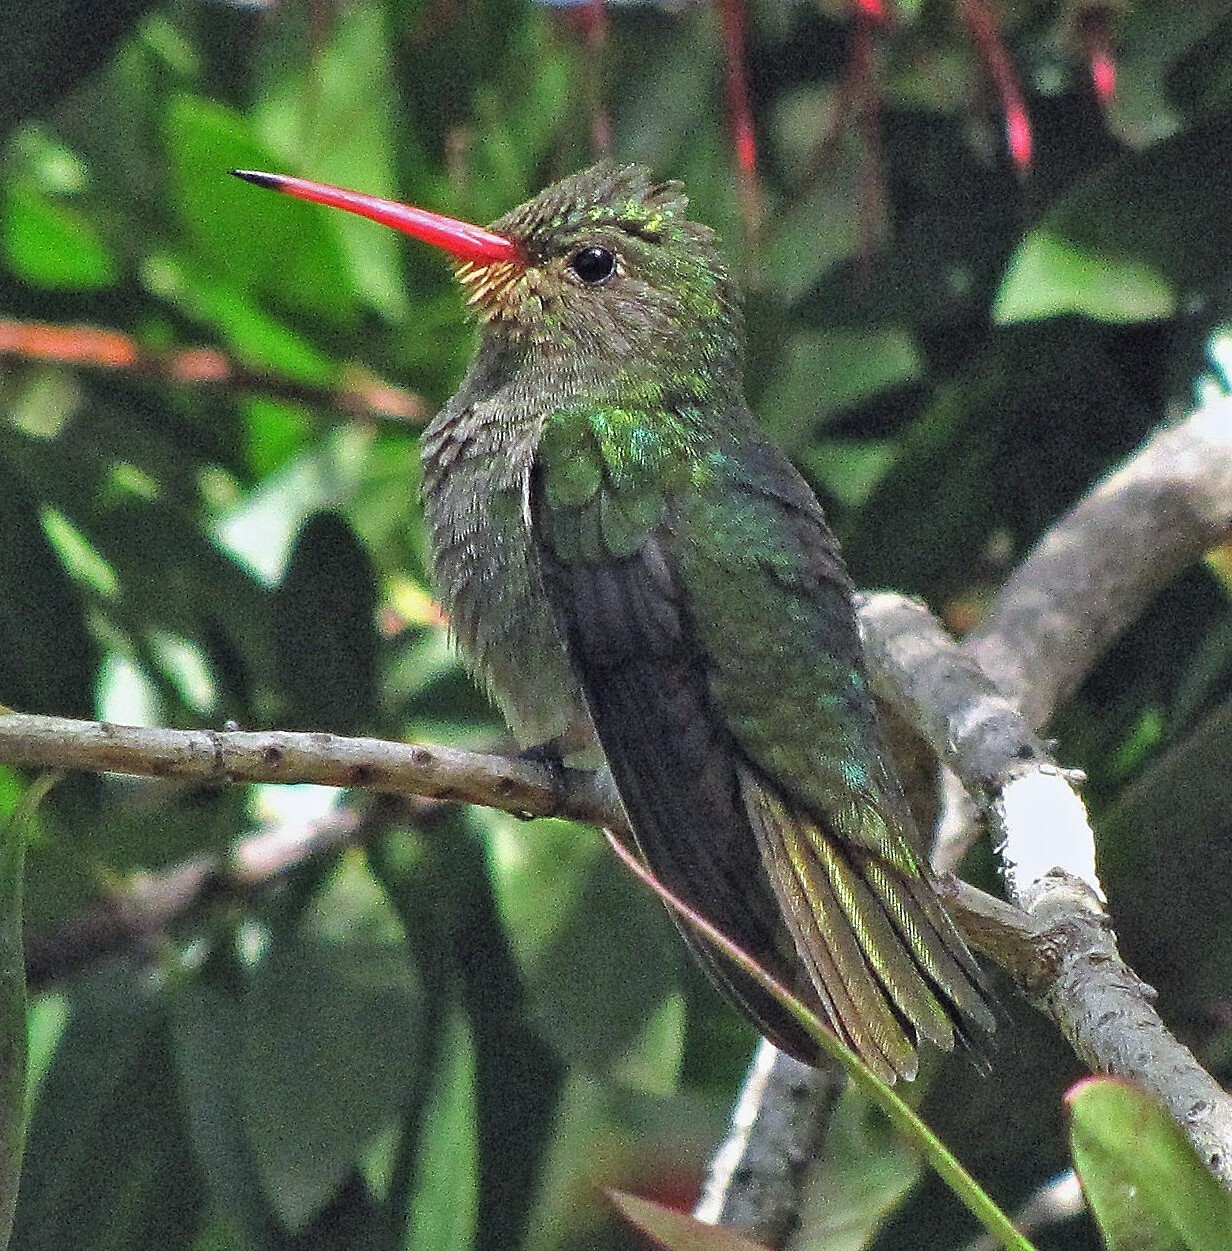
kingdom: Animalia
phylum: Chordata
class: Aves
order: Apodiformes
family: Trochilidae
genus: Hylocharis
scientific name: Hylocharis chrysura
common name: Gilded sapphire
